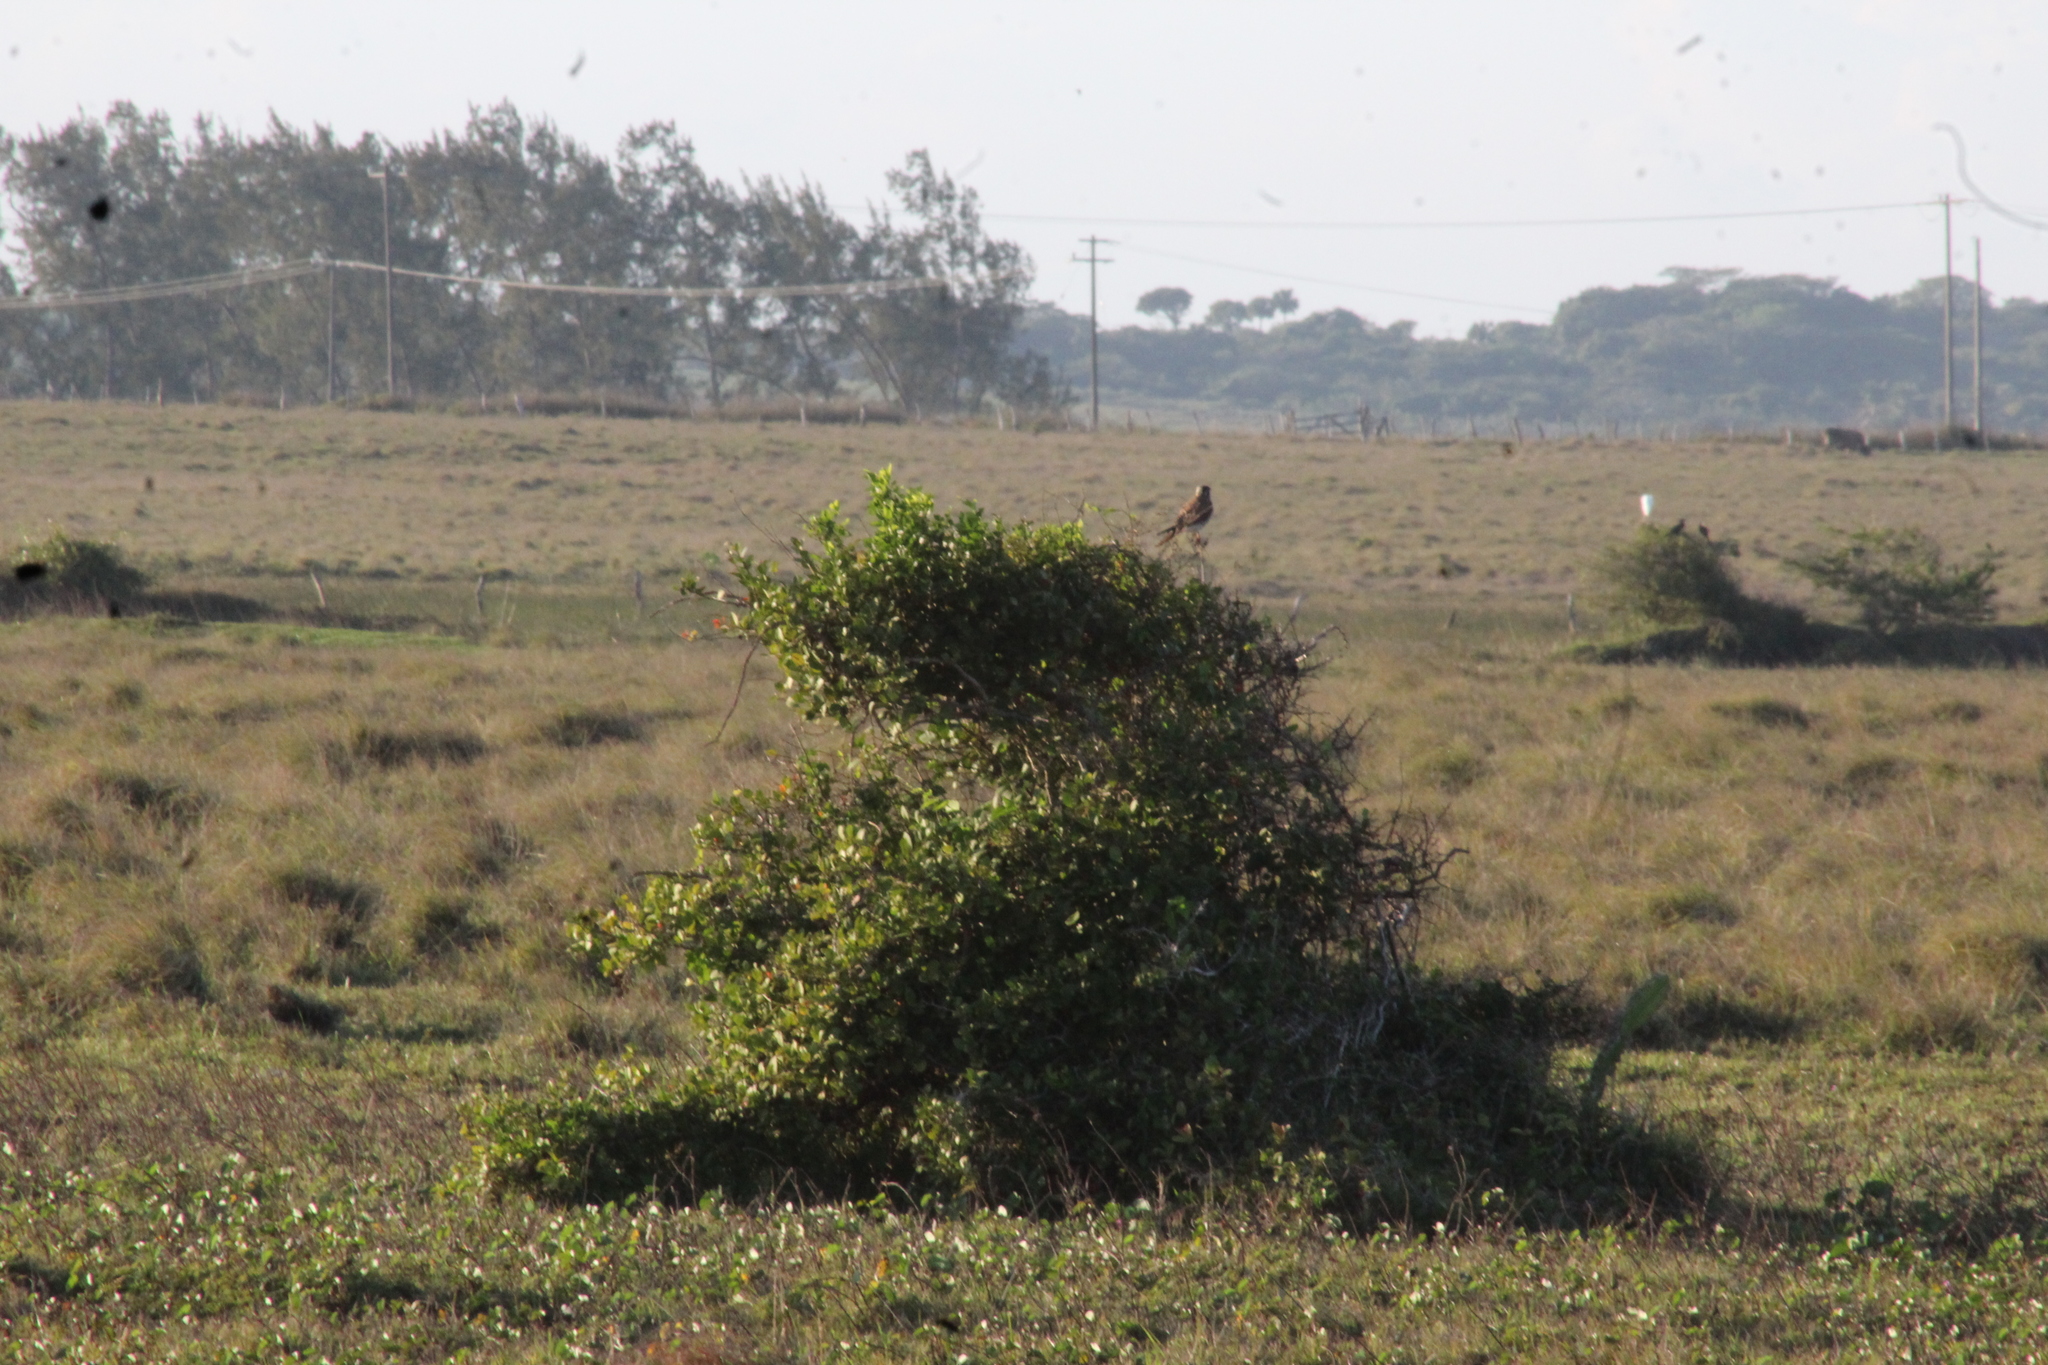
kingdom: Animalia
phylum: Chordata
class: Aves
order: Falconiformes
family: Falconidae
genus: Falco
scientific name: Falco sparverius
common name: American kestrel
